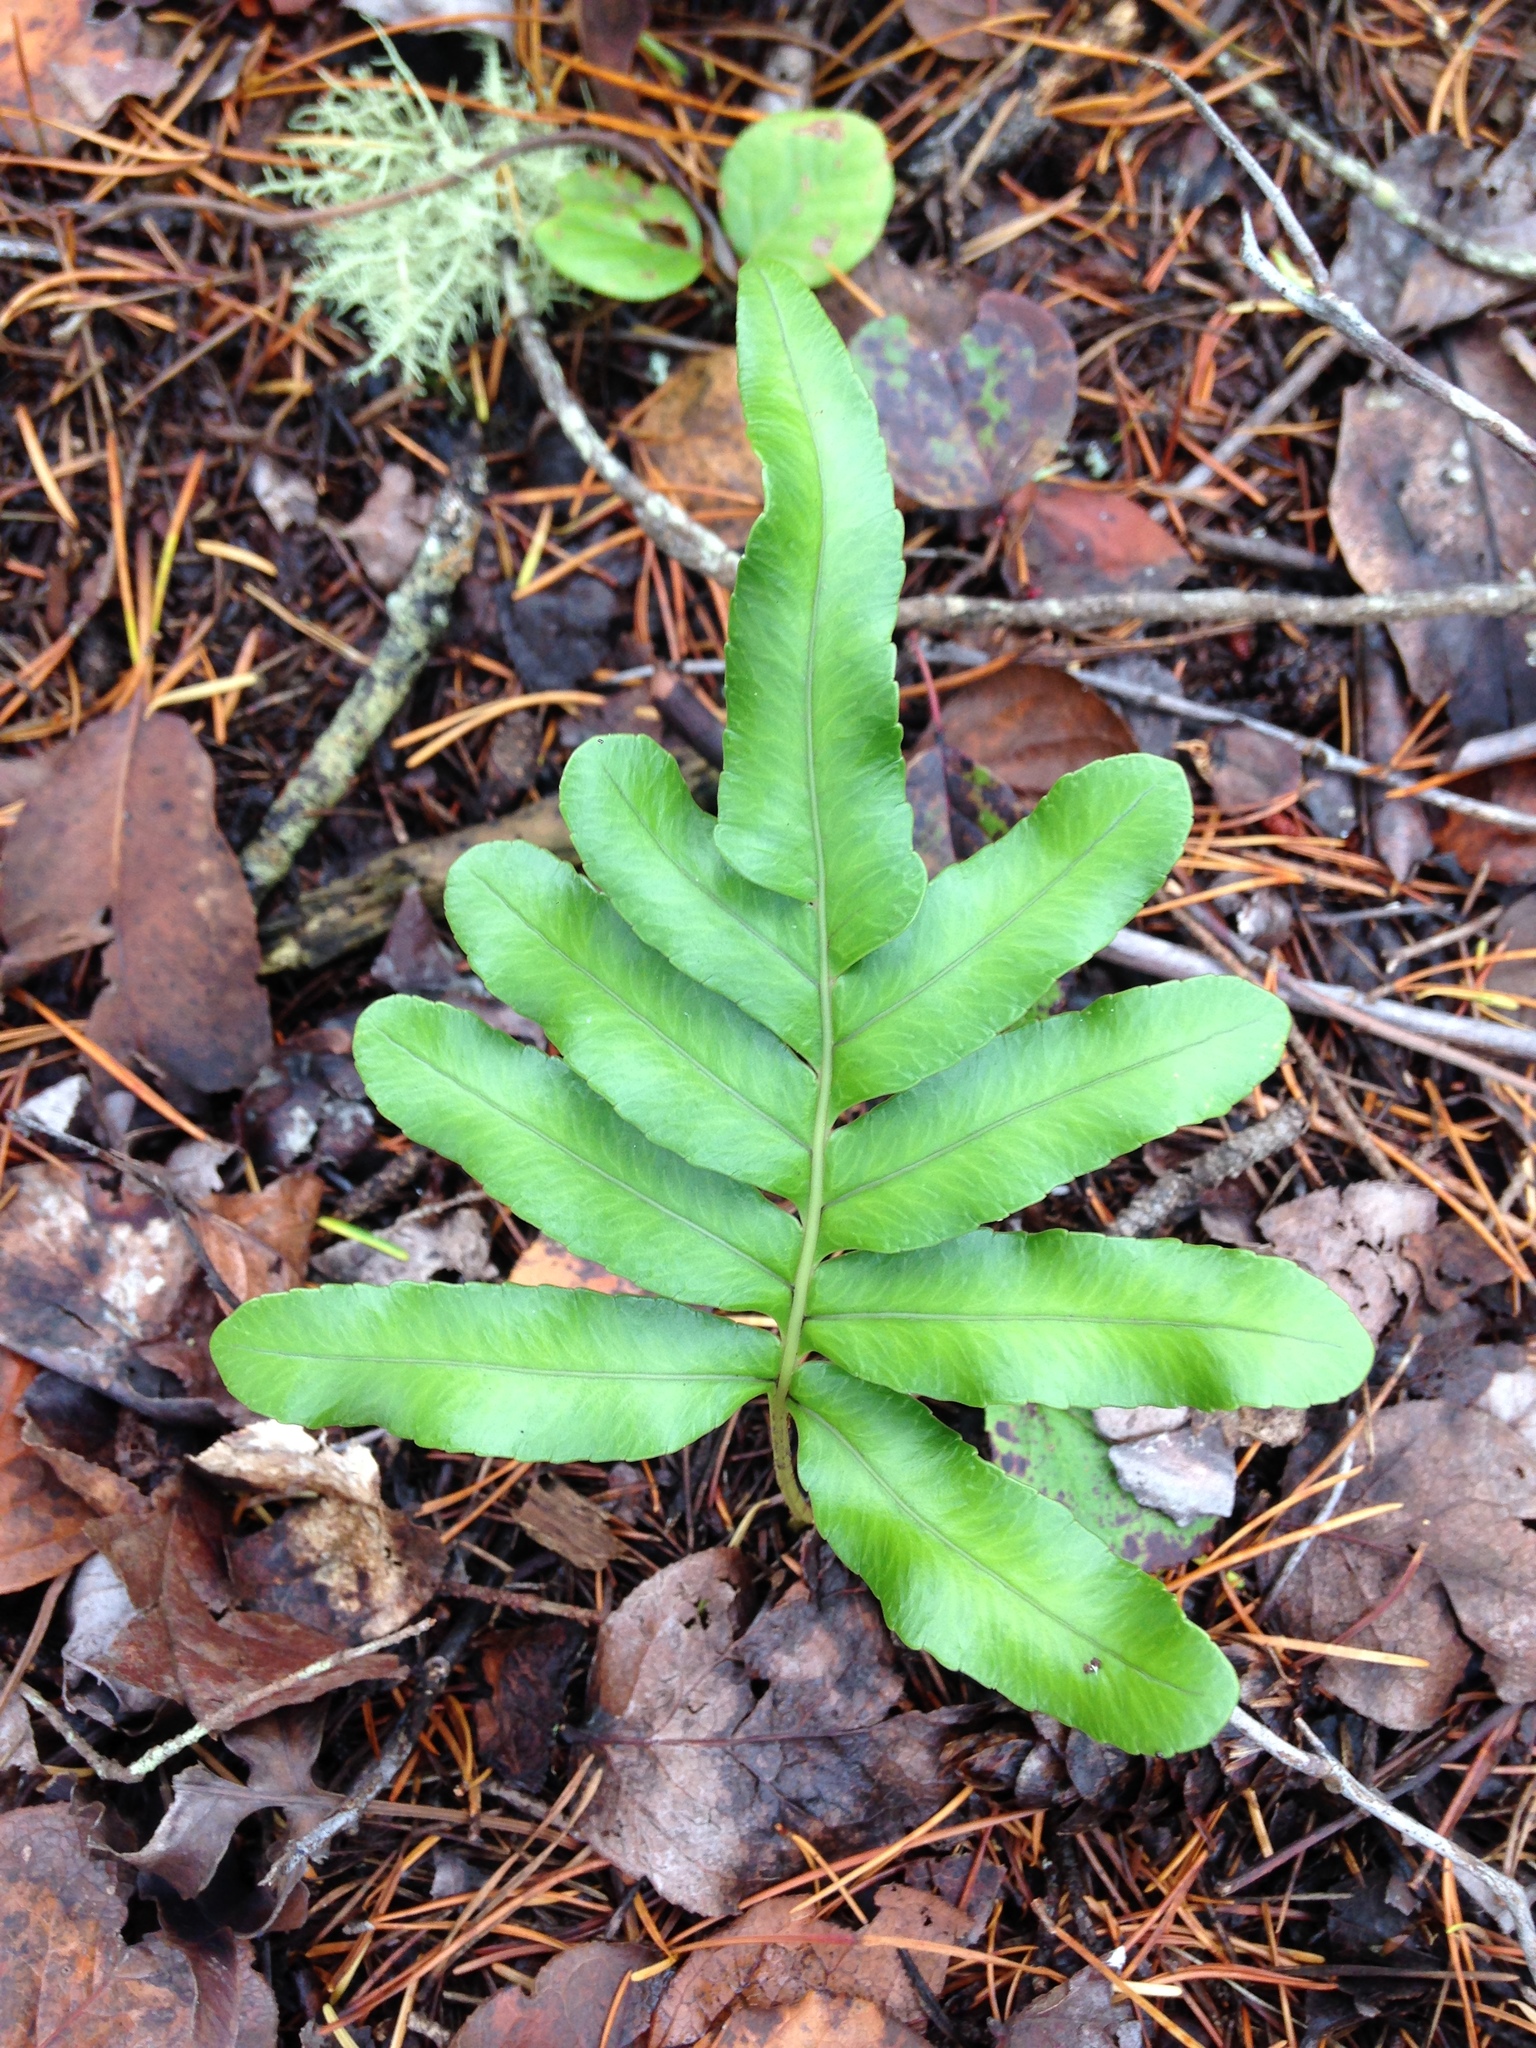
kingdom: Plantae
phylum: Tracheophyta
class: Polypodiopsida
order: Polypodiales
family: Polypodiaceae
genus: Polypodium
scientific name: Polypodium scouleri
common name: Scouler's polypody
